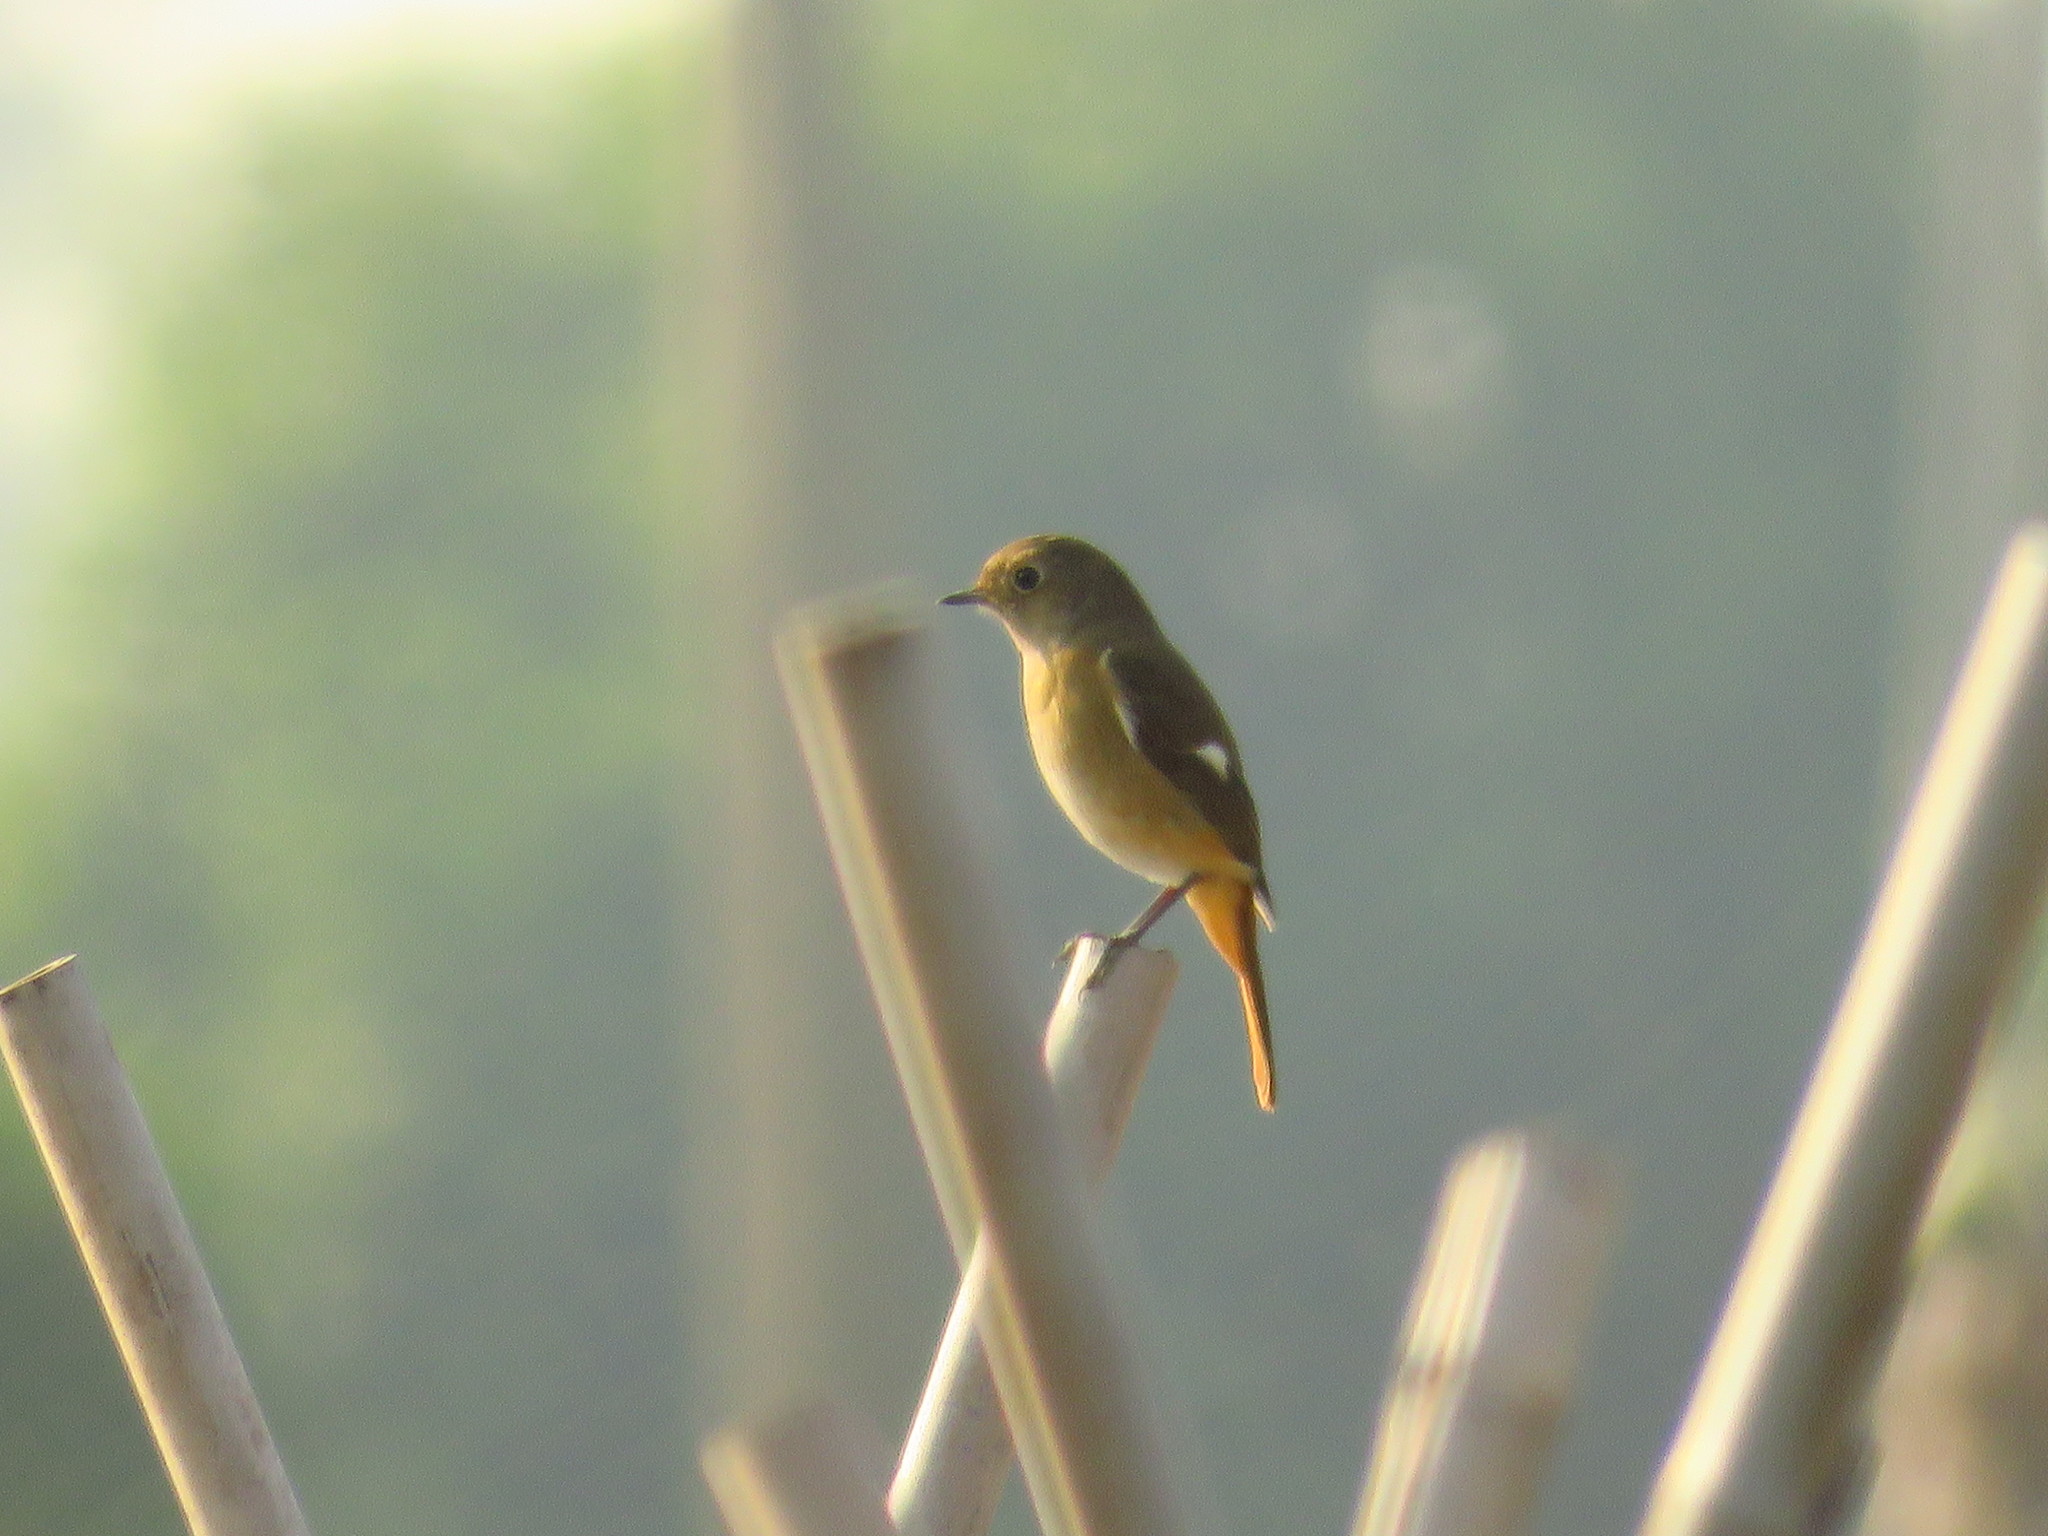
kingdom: Animalia
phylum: Chordata
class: Aves
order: Passeriformes
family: Muscicapidae
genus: Phoenicurus
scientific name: Phoenicurus auroreus
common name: Daurian redstart
